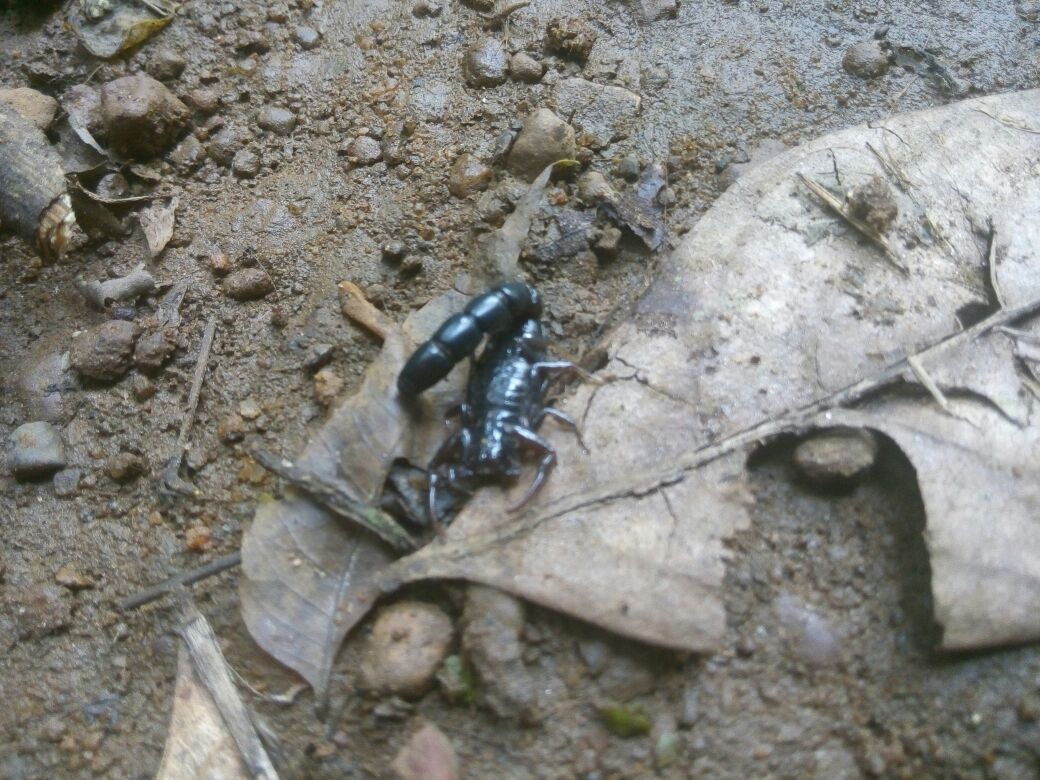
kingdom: Animalia
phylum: Arthropoda
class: Arachnida
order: Scorpiones
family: Buthidae
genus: Buthoscorpio
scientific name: Buthoscorpio politus
